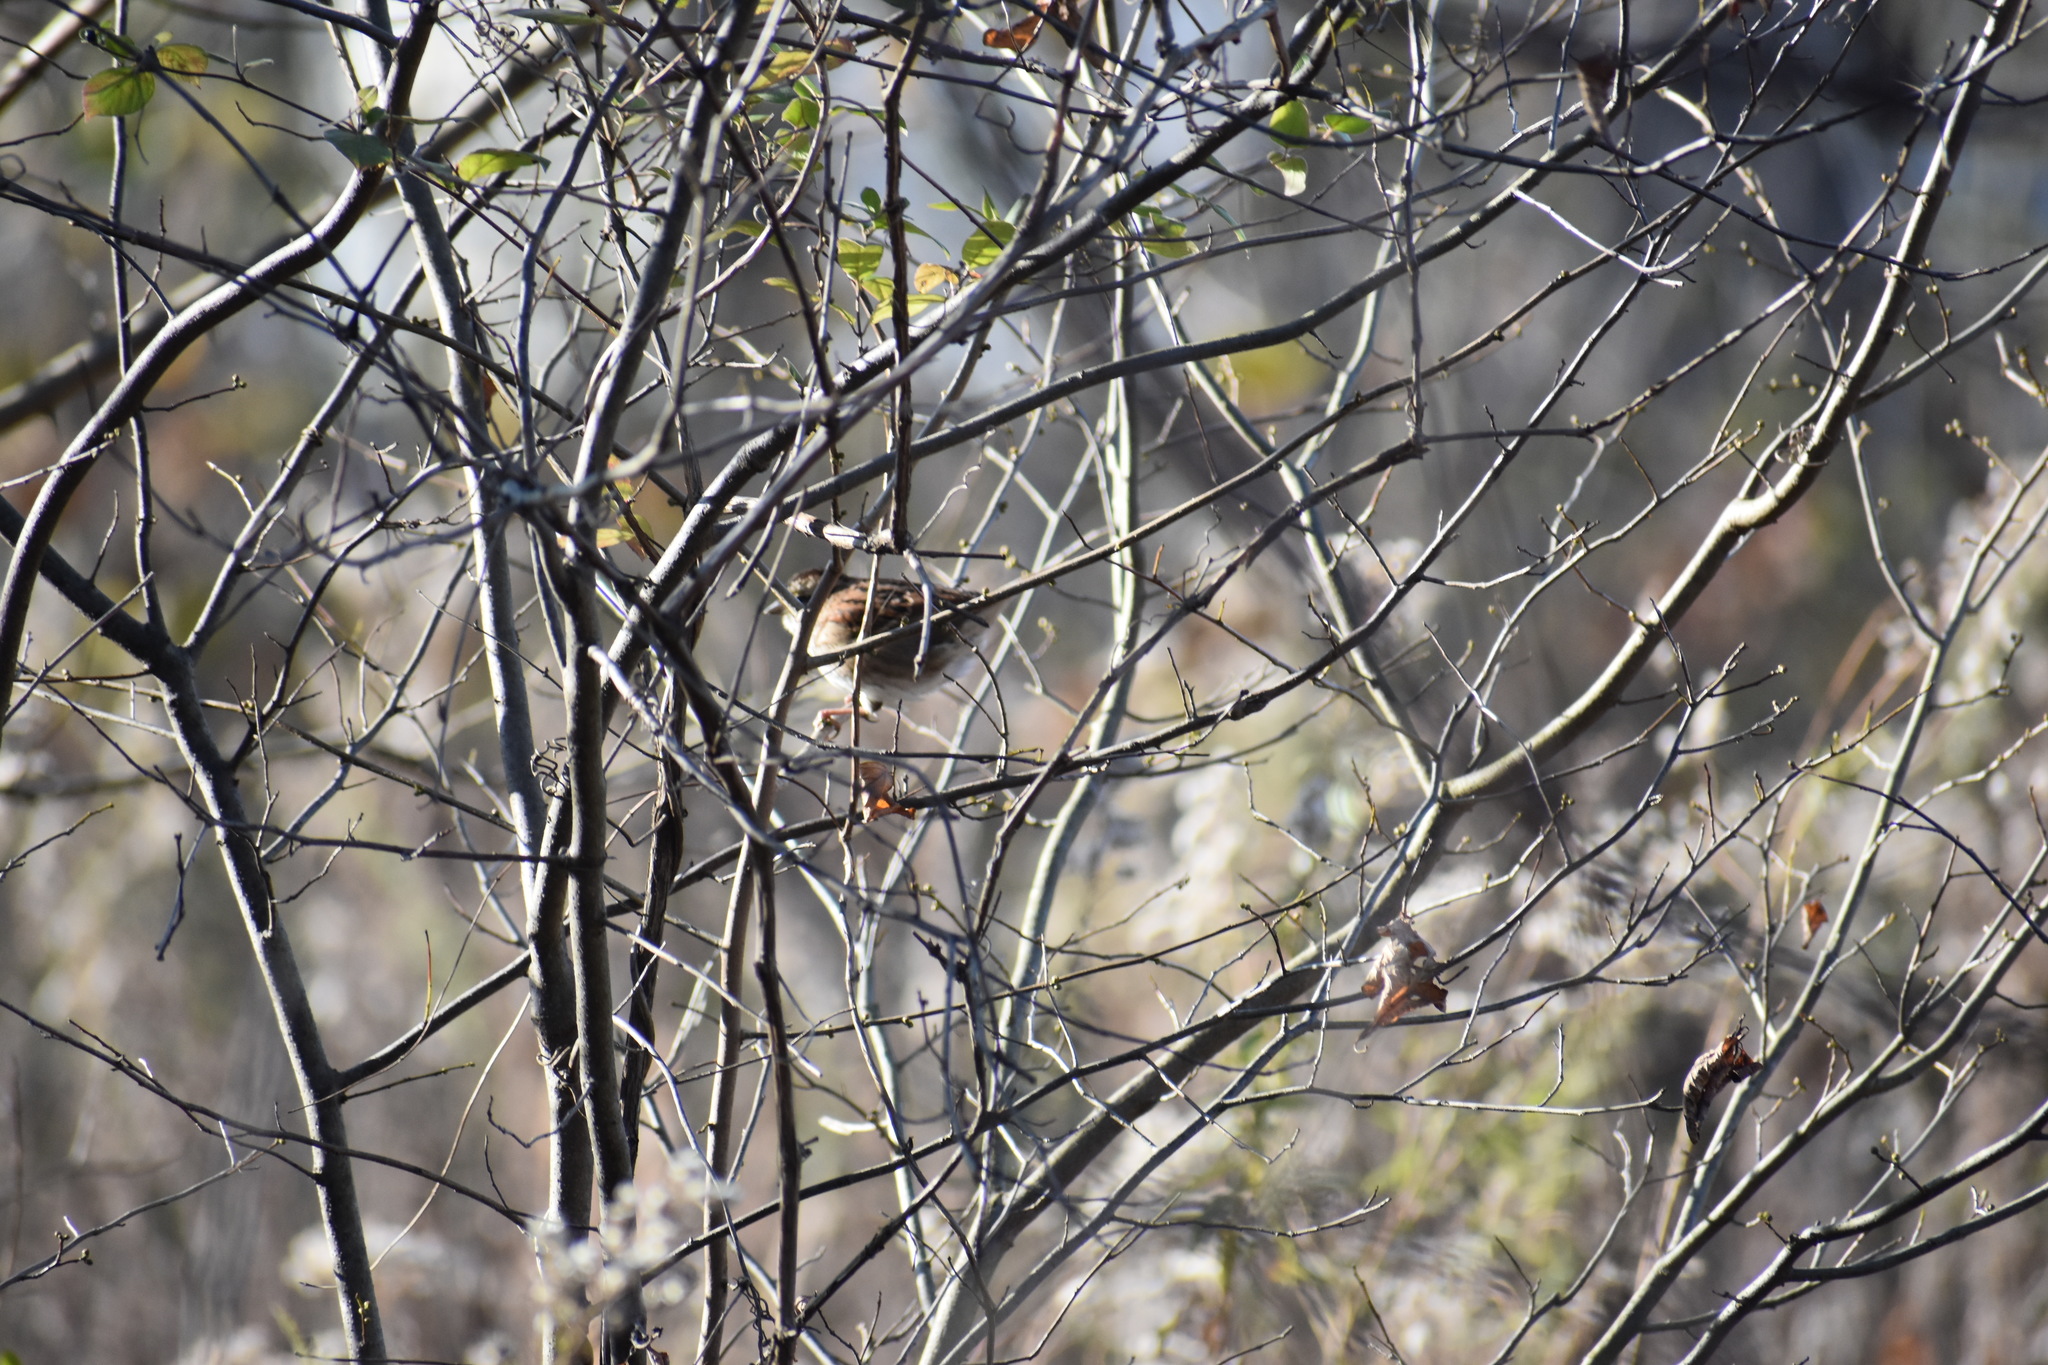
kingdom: Animalia
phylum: Chordata
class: Aves
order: Passeriformes
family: Passerellidae
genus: Zonotrichia
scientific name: Zonotrichia albicollis
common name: White-throated sparrow
